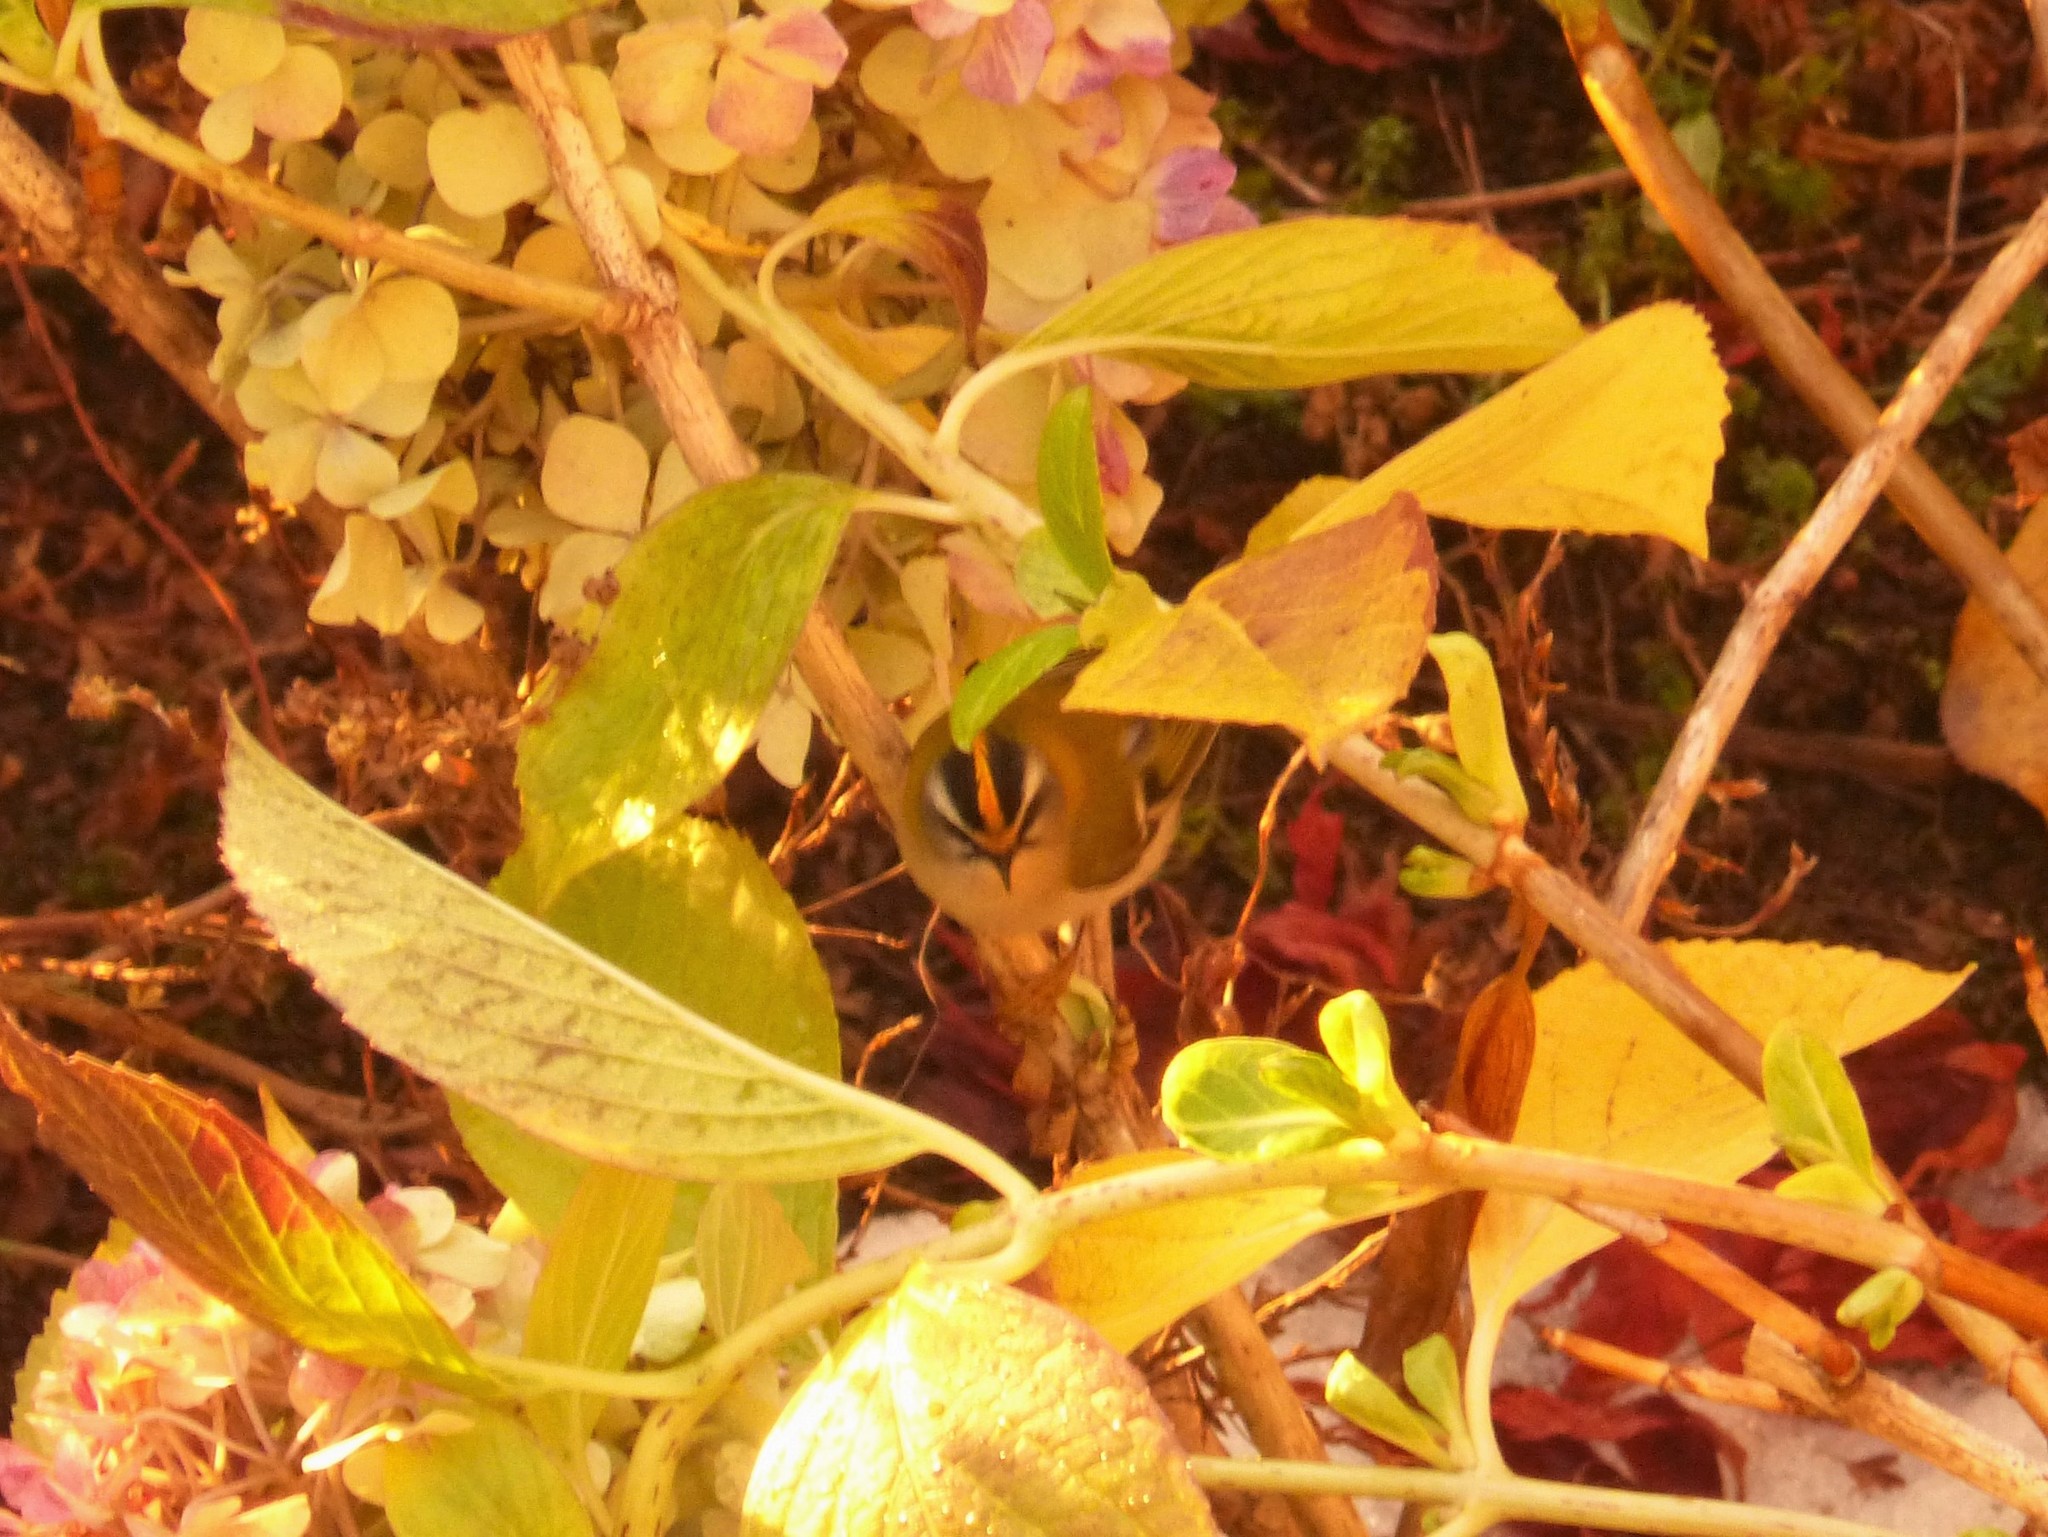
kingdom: Animalia
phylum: Chordata
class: Aves
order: Passeriformes
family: Regulidae
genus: Regulus
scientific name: Regulus ignicapilla
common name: Firecrest
